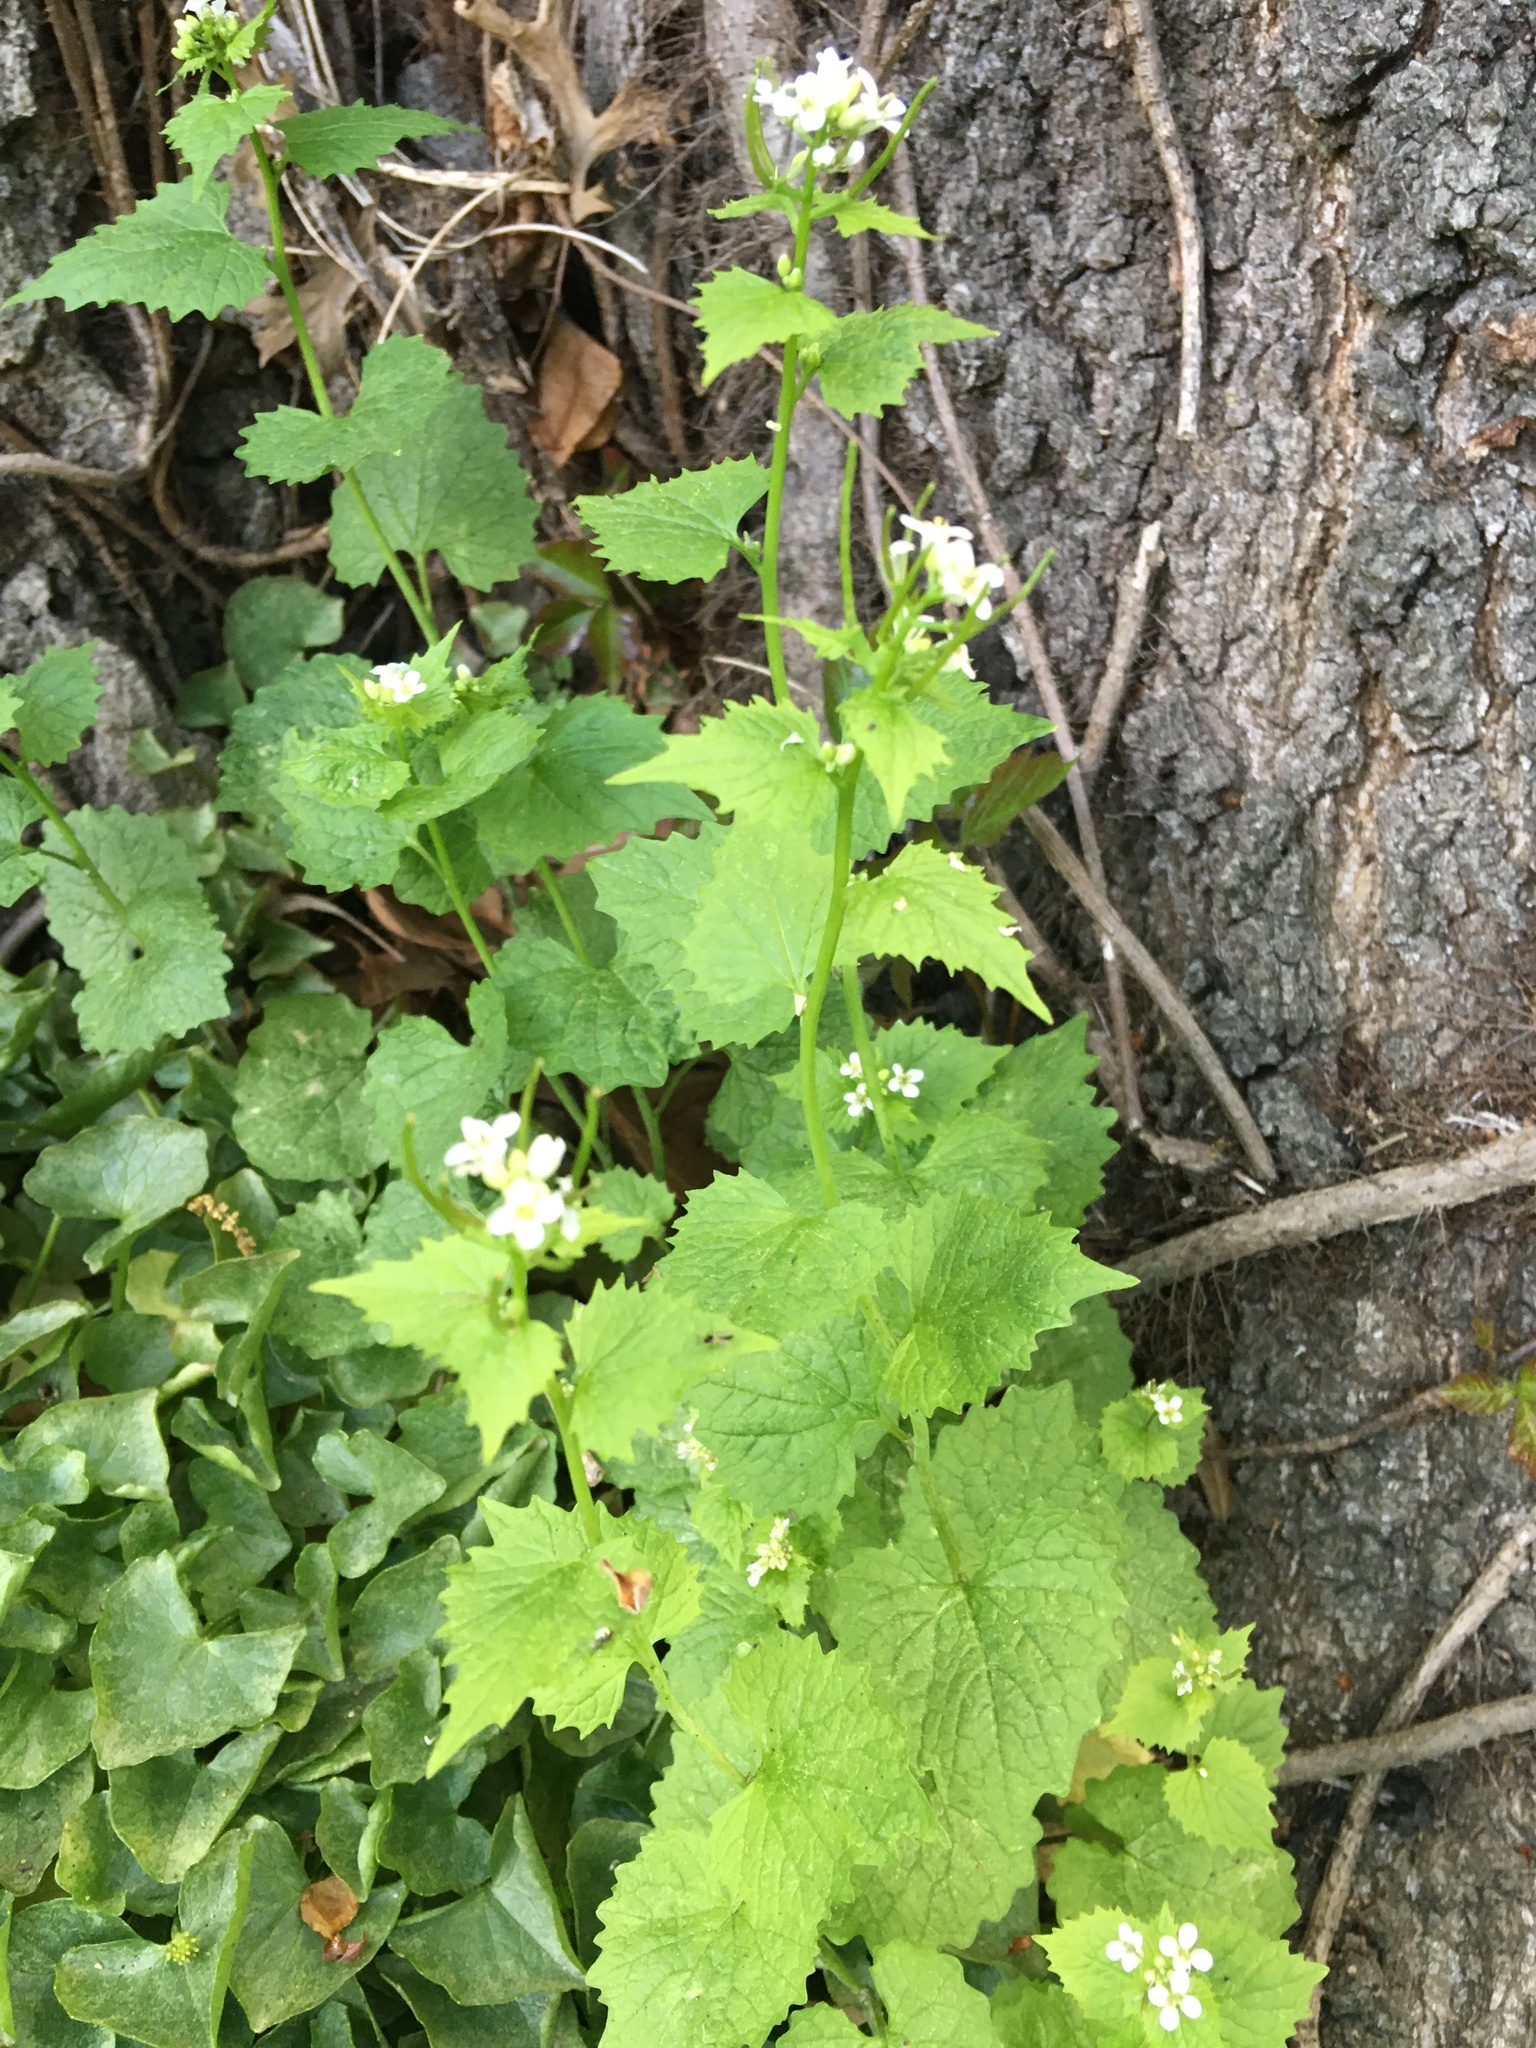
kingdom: Plantae
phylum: Tracheophyta
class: Magnoliopsida
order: Brassicales
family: Brassicaceae
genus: Alliaria
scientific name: Alliaria petiolata
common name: Garlic mustard
